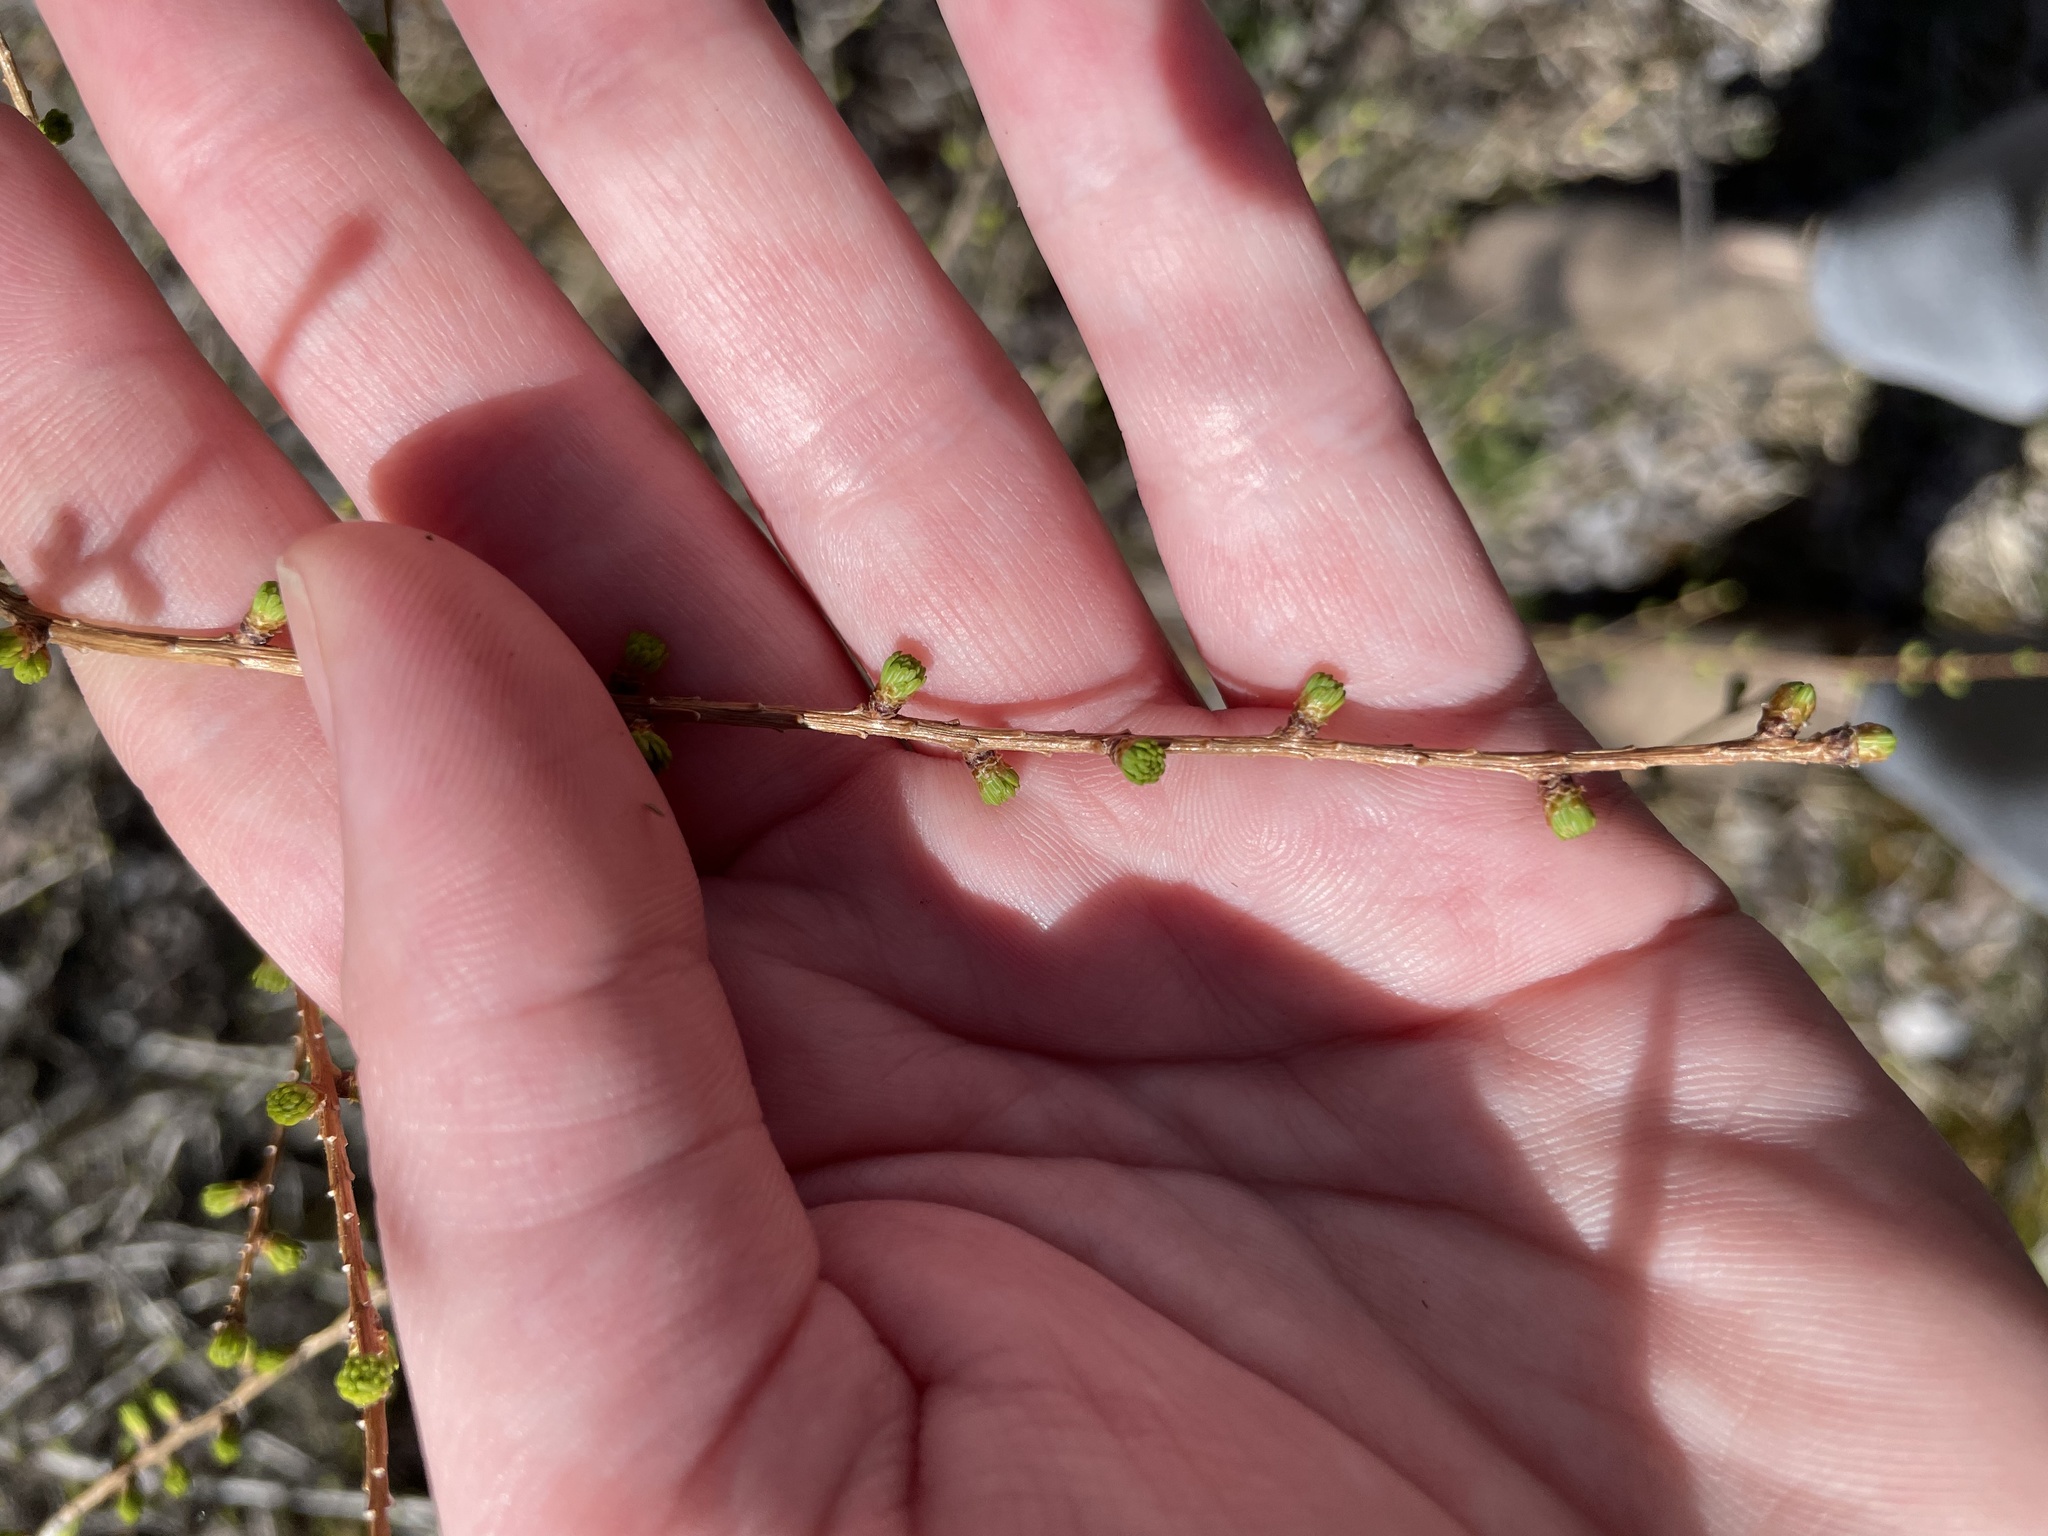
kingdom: Plantae
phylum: Tracheophyta
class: Pinopsida
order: Pinales
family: Pinaceae
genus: Larix
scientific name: Larix laricina
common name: American larch
